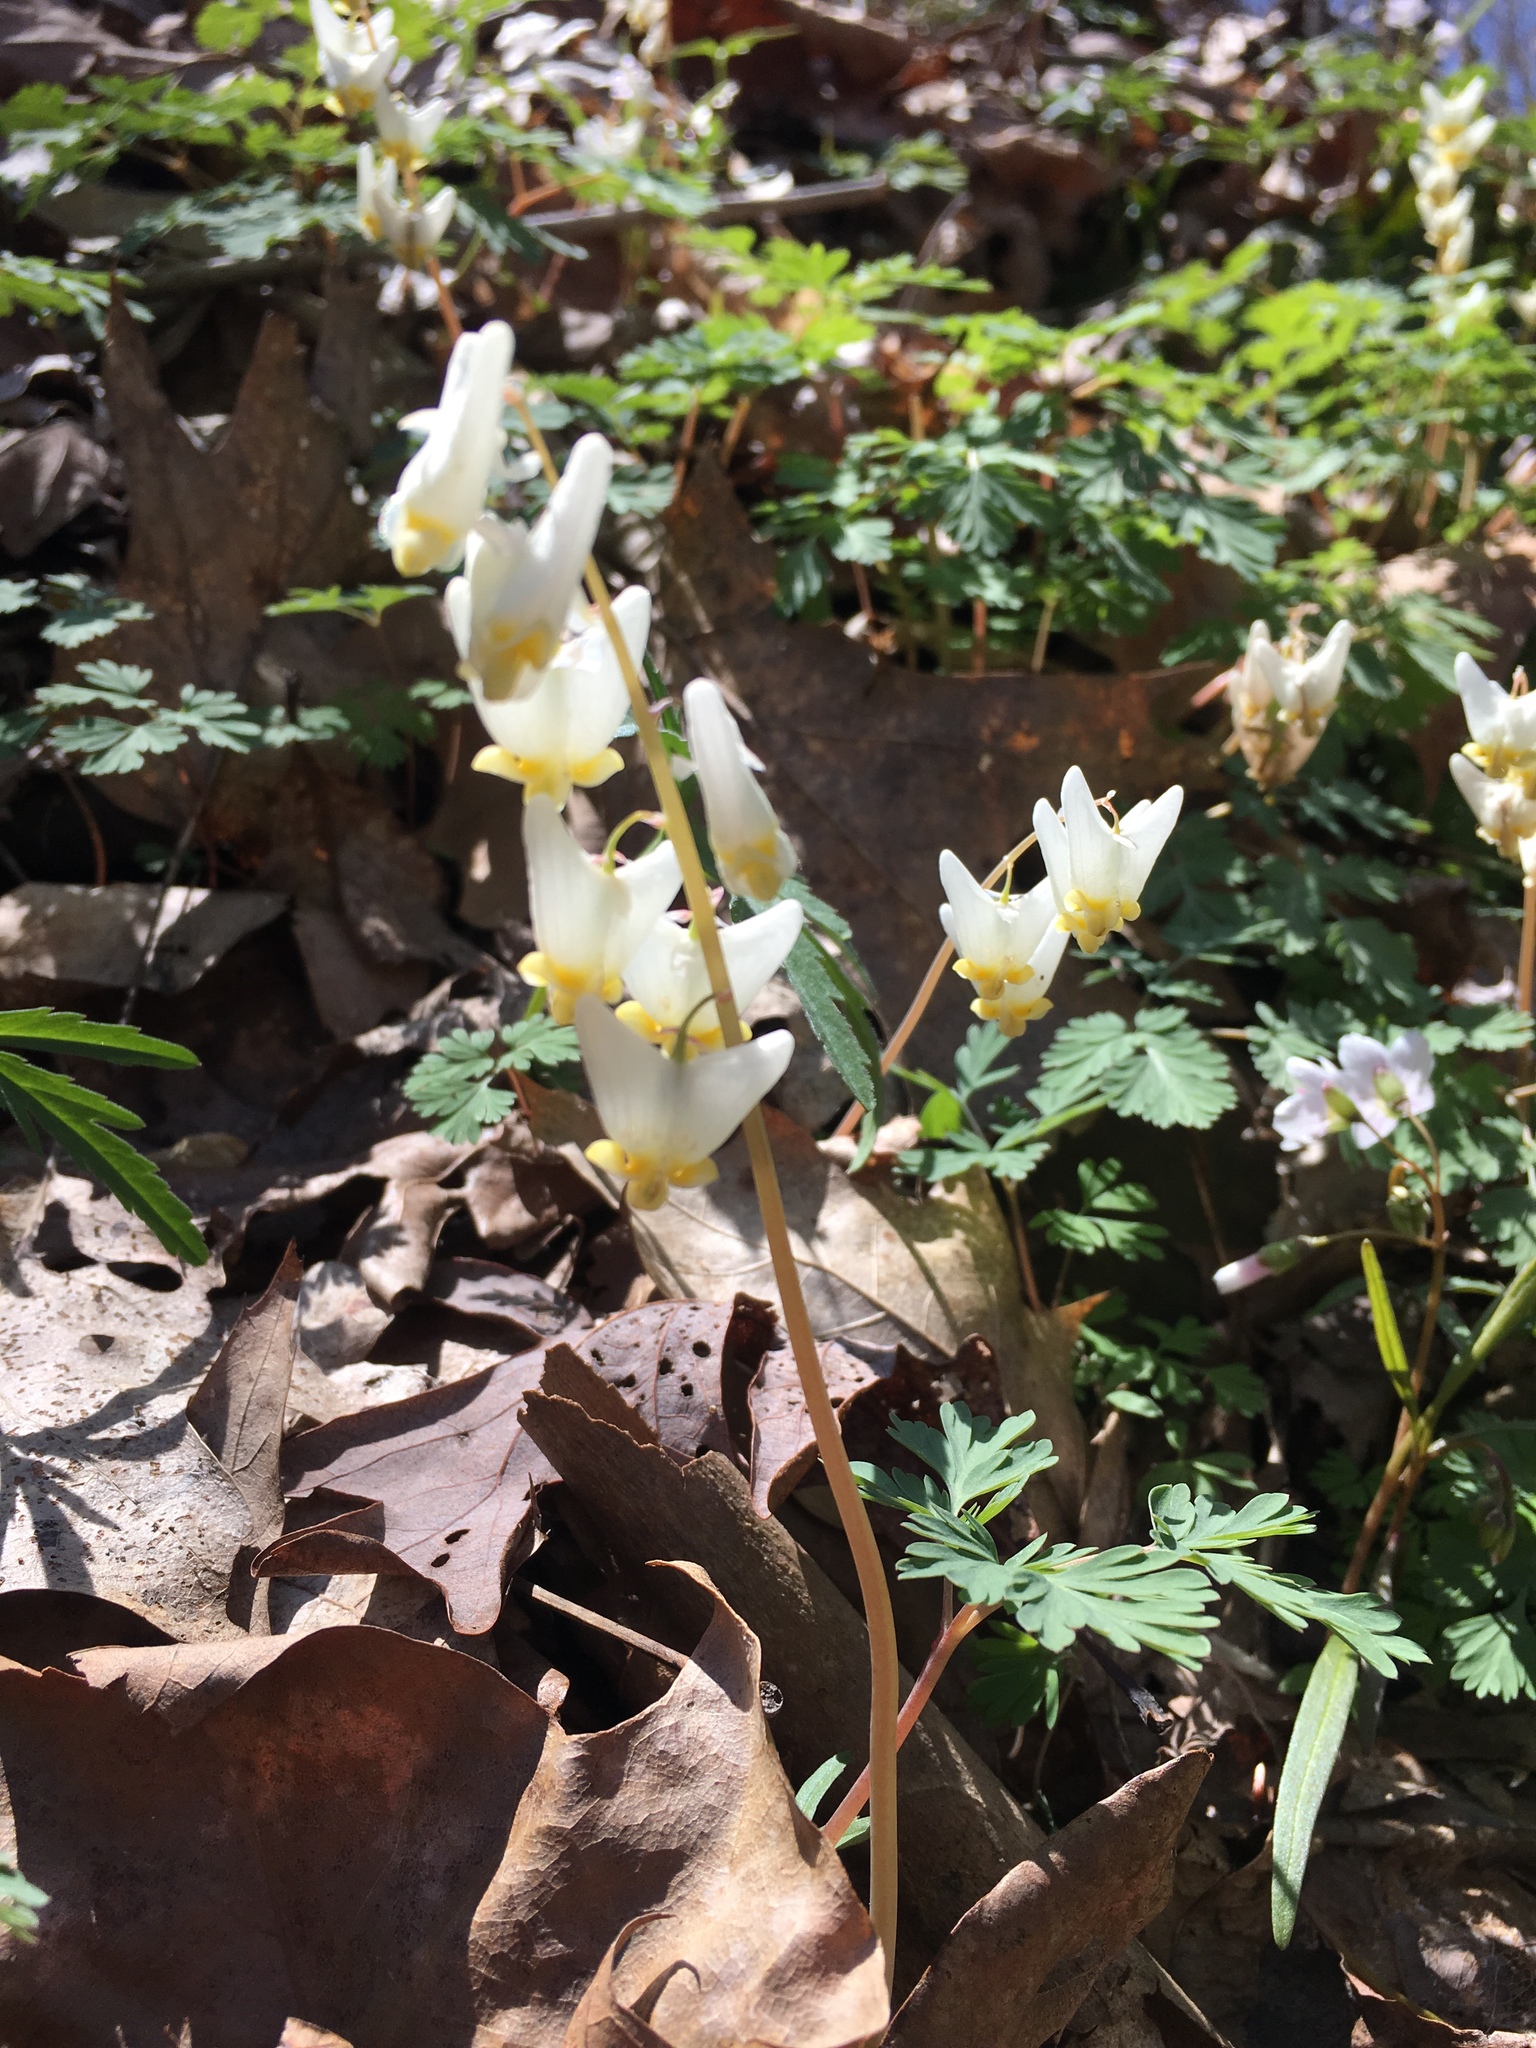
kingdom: Plantae
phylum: Tracheophyta
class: Magnoliopsida
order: Ranunculales
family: Papaveraceae
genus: Dicentra
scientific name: Dicentra cucullaria
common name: Dutchman's breeches
